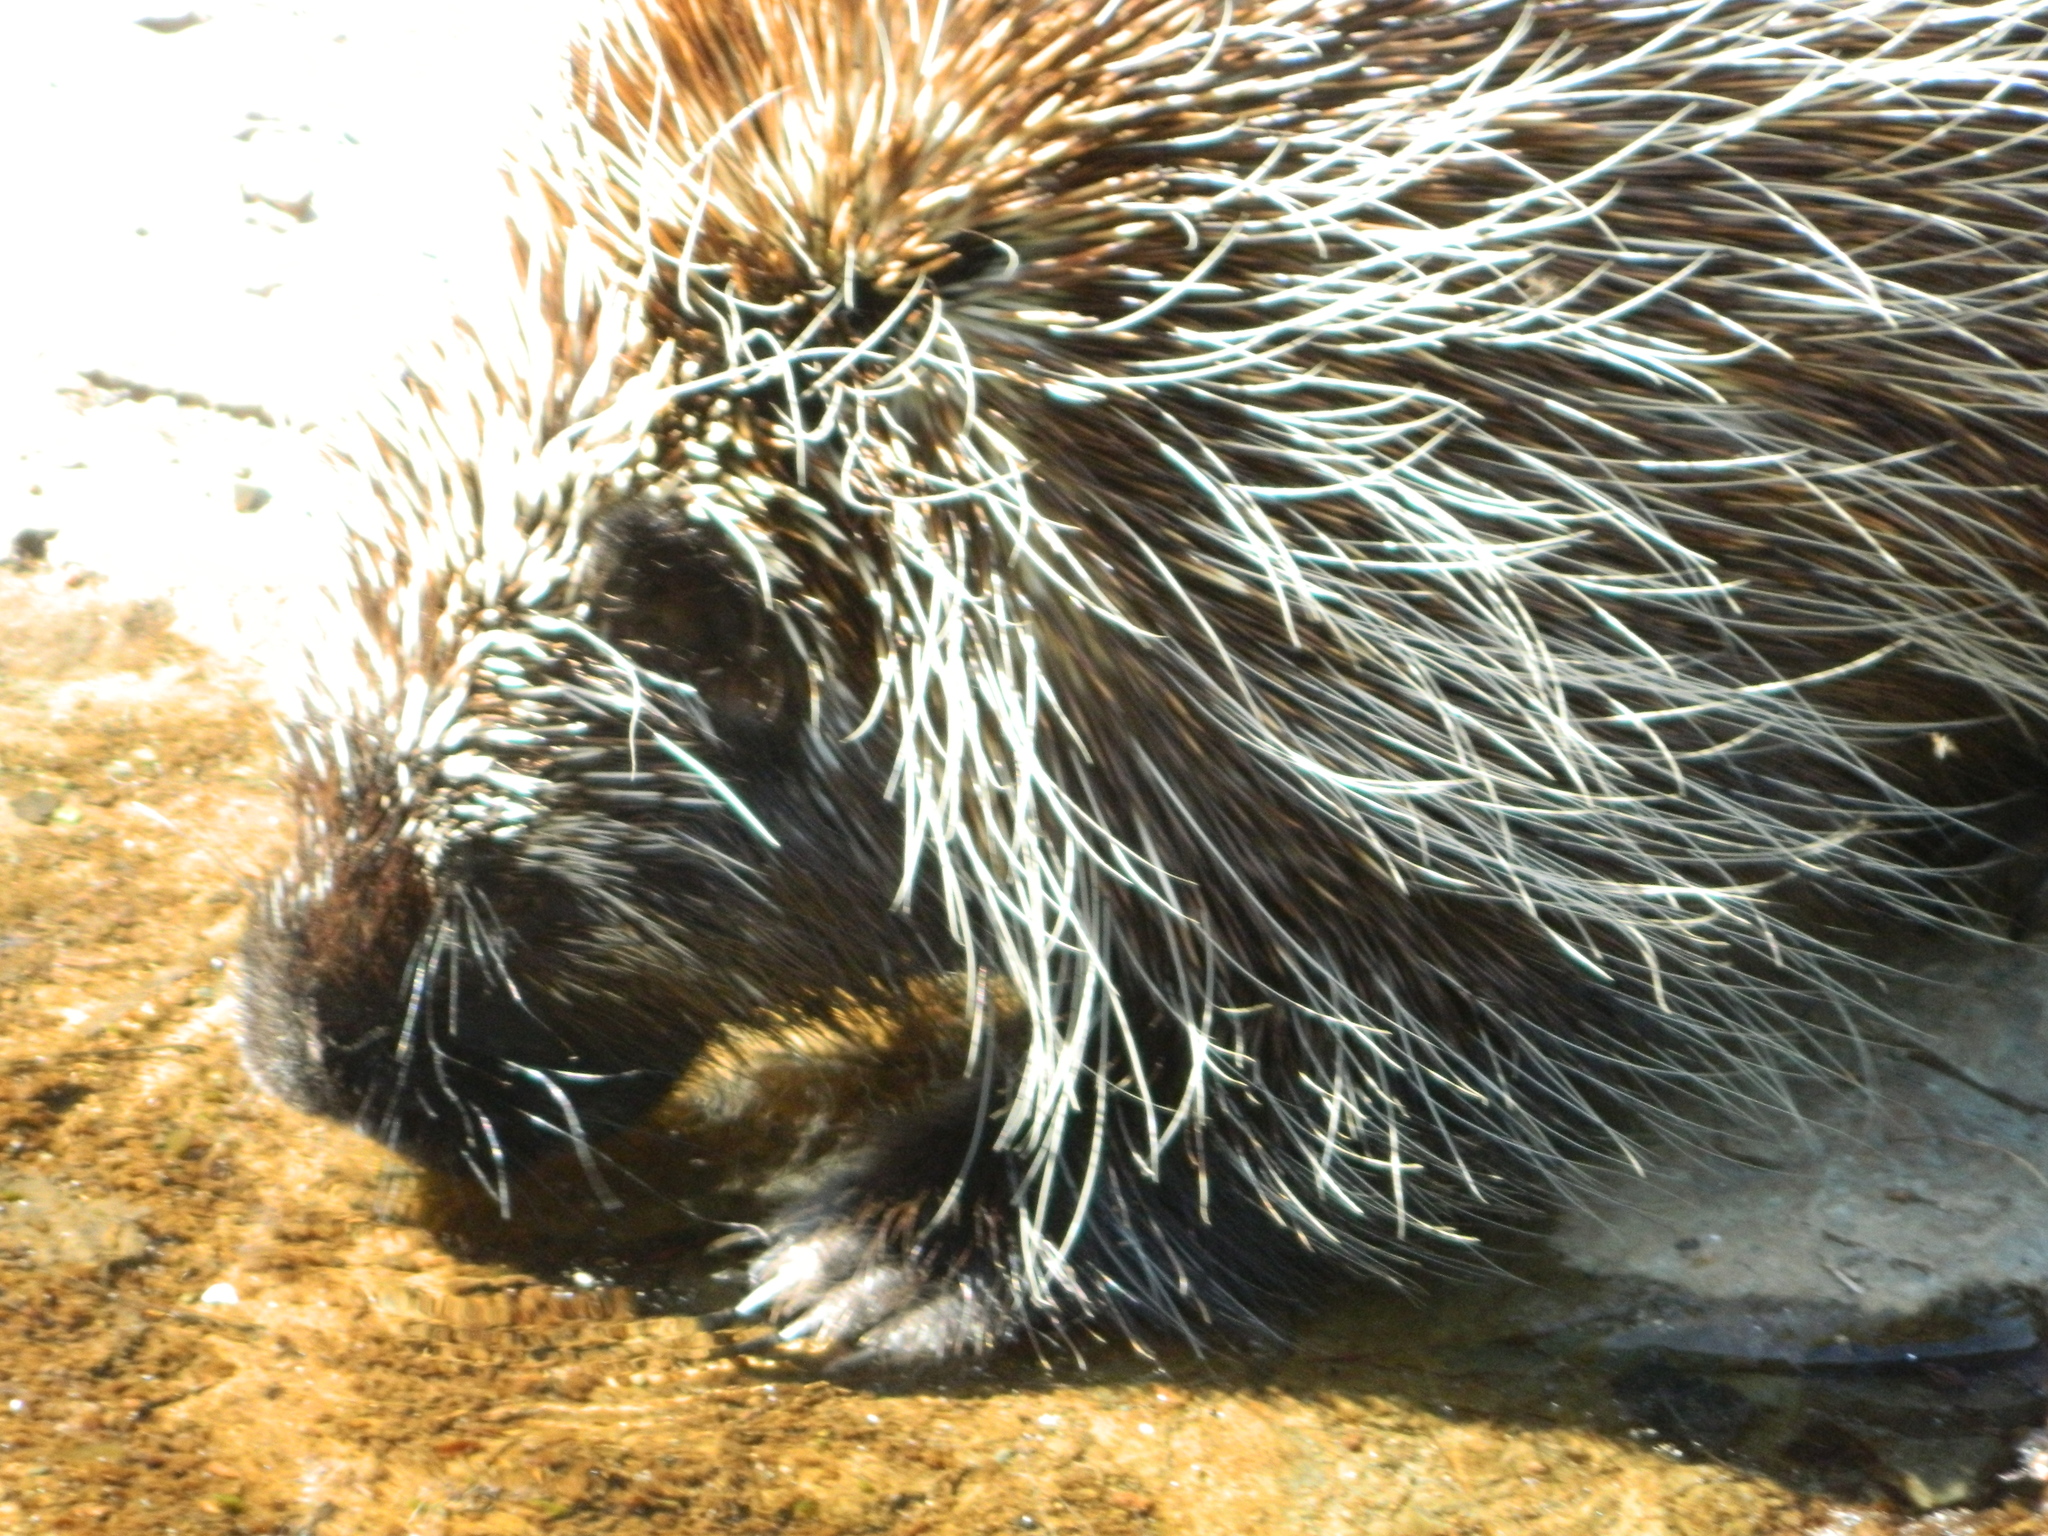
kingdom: Animalia
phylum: Chordata
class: Mammalia
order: Rodentia
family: Erethizontidae
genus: Erethizon
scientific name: Erethizon dorsatus
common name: North american porcupine
